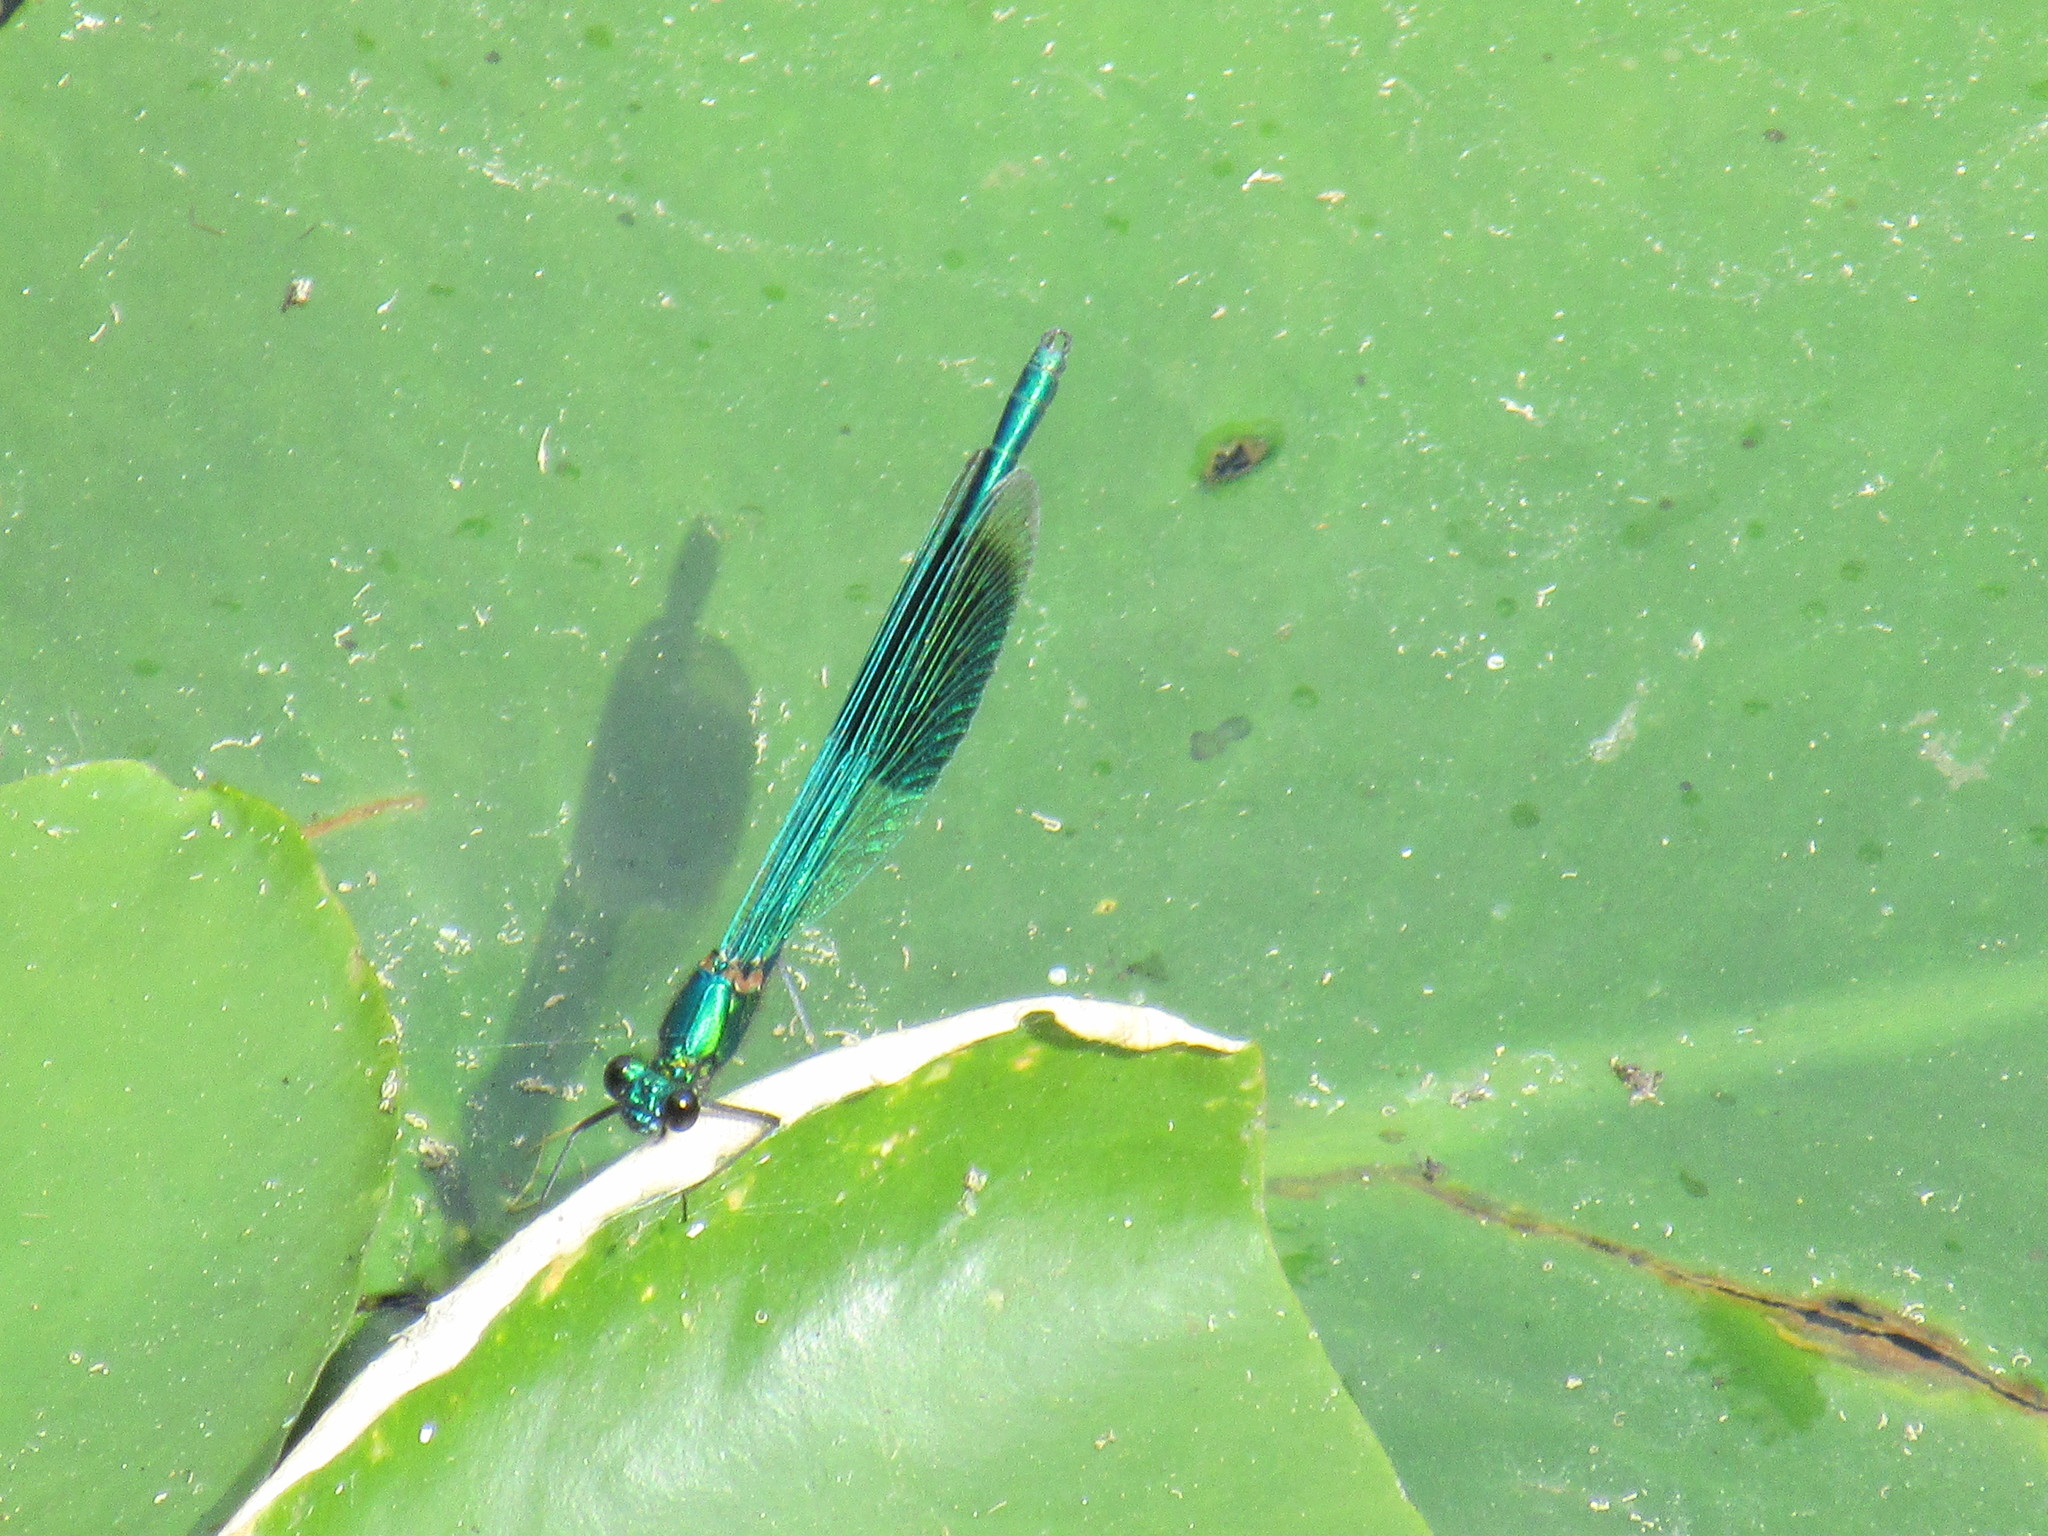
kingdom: Animalia
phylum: Arthropoda
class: Insecta
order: Odonata
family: Calopterygidae
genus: Calopteryx
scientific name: Calopteryx splendens
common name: Banded demoiselle
